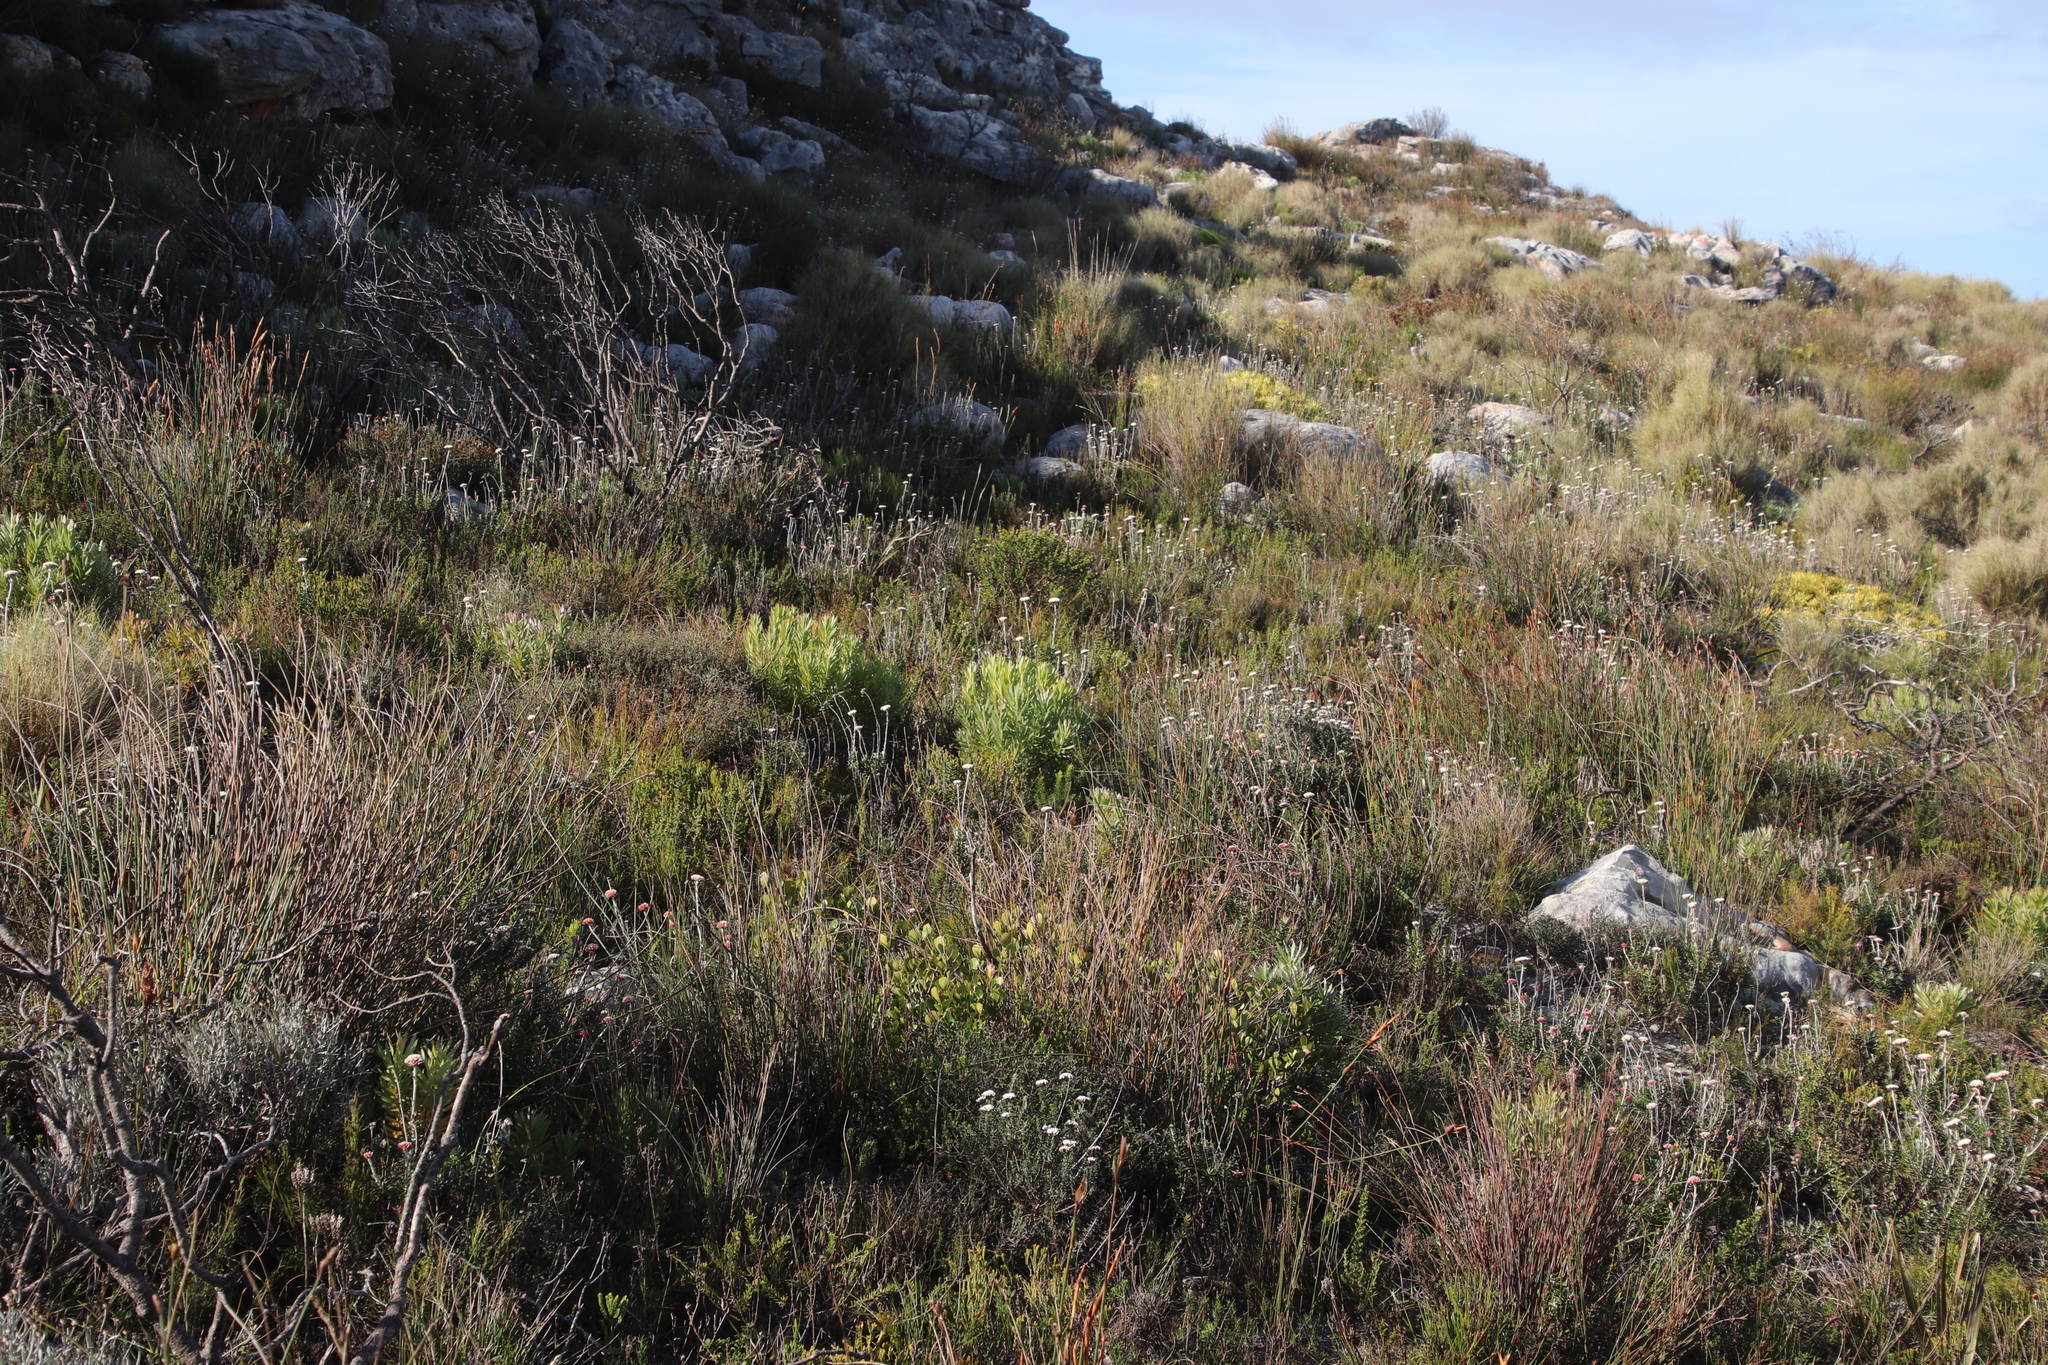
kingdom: Plantae
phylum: Tracheophyta
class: Magnoliopsida
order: Proteales
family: Proteaceae
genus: Leucadendron
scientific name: Leucadendron xanthoconus
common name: Sickle-leaf conebush
